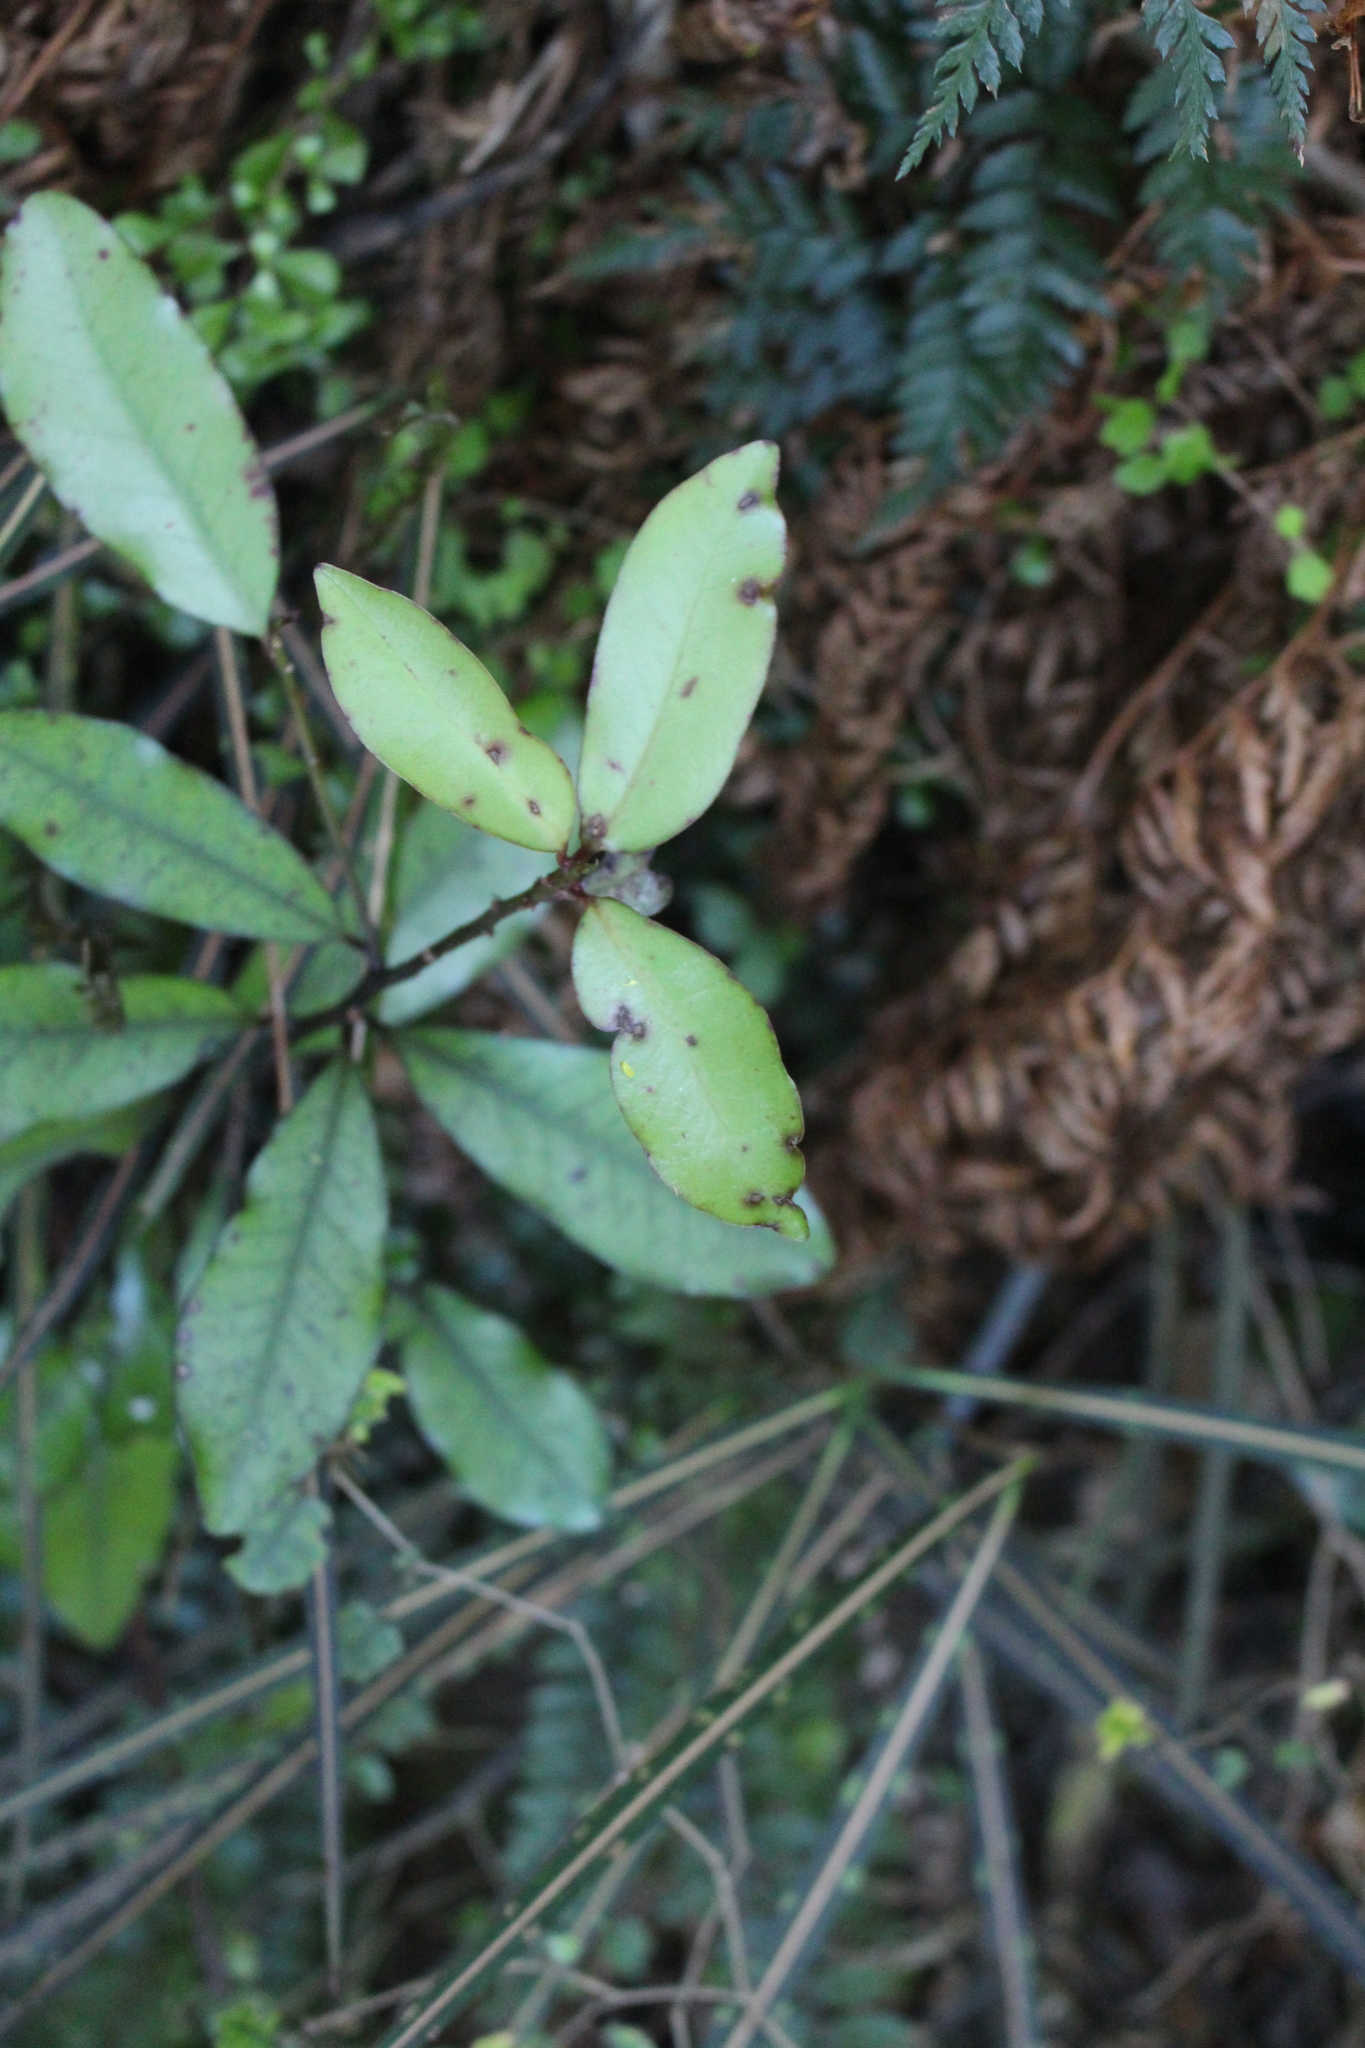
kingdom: Plantae
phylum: Tracheophyta
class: Magnoliopsida
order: Canellales
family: Winteraceae
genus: Pseudowintera
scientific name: Pseudowintera colorata
